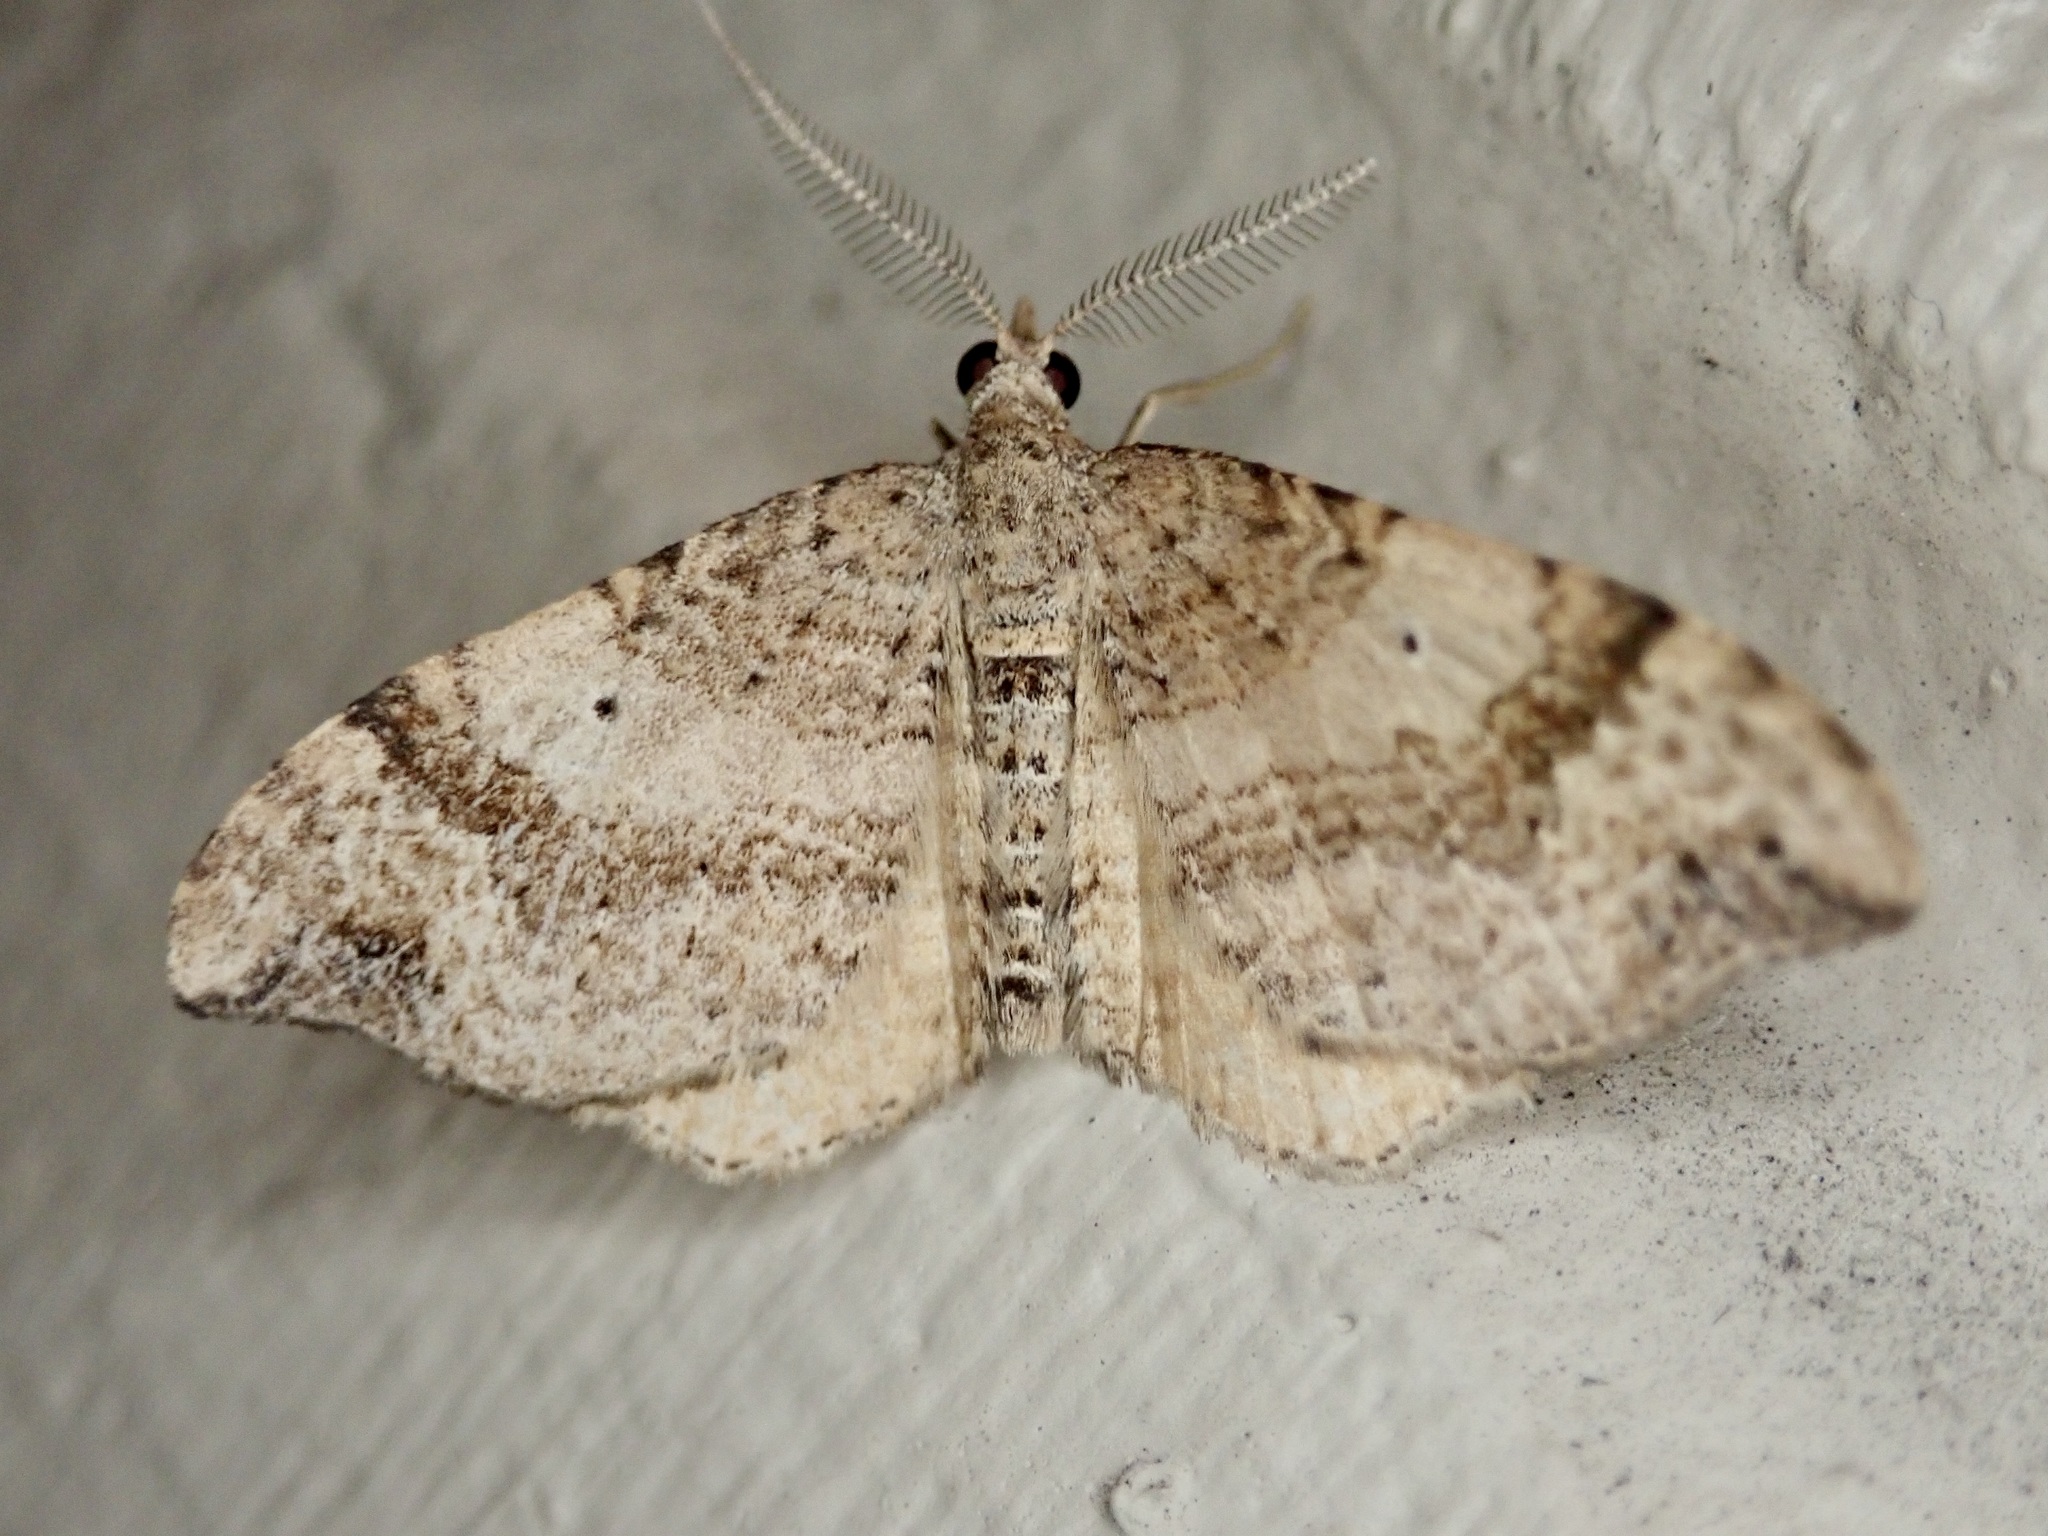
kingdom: Animalia
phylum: Arthropoda
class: Insecta
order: Lepidoptera
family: Geometridae
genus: Homodotis
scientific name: Homodotis megaspilata
